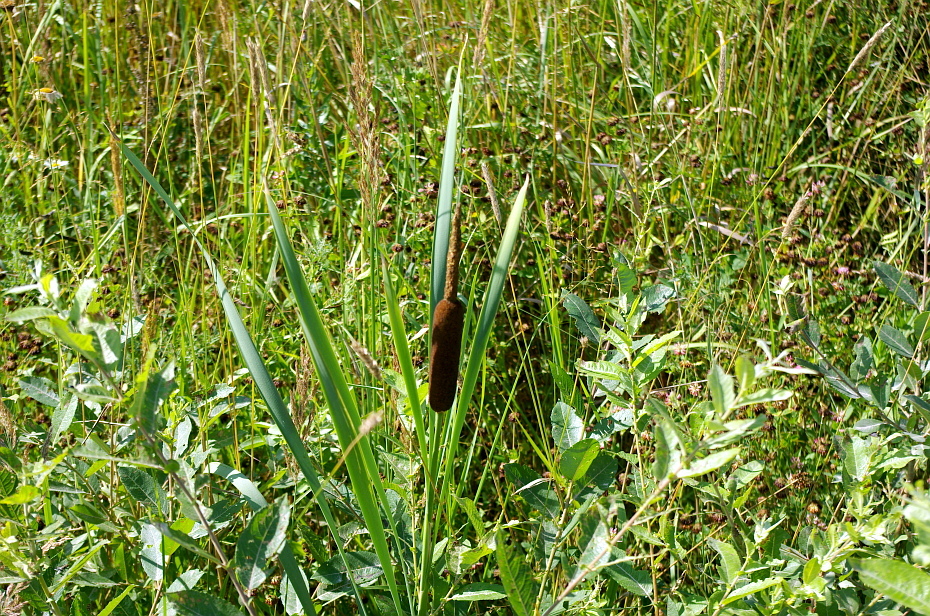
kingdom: Plantae
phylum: Tracheophyta
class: Liliopsida
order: Poales
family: Typhaceae
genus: Typha
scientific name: Typha latifolia
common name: Broadleaf cattail
